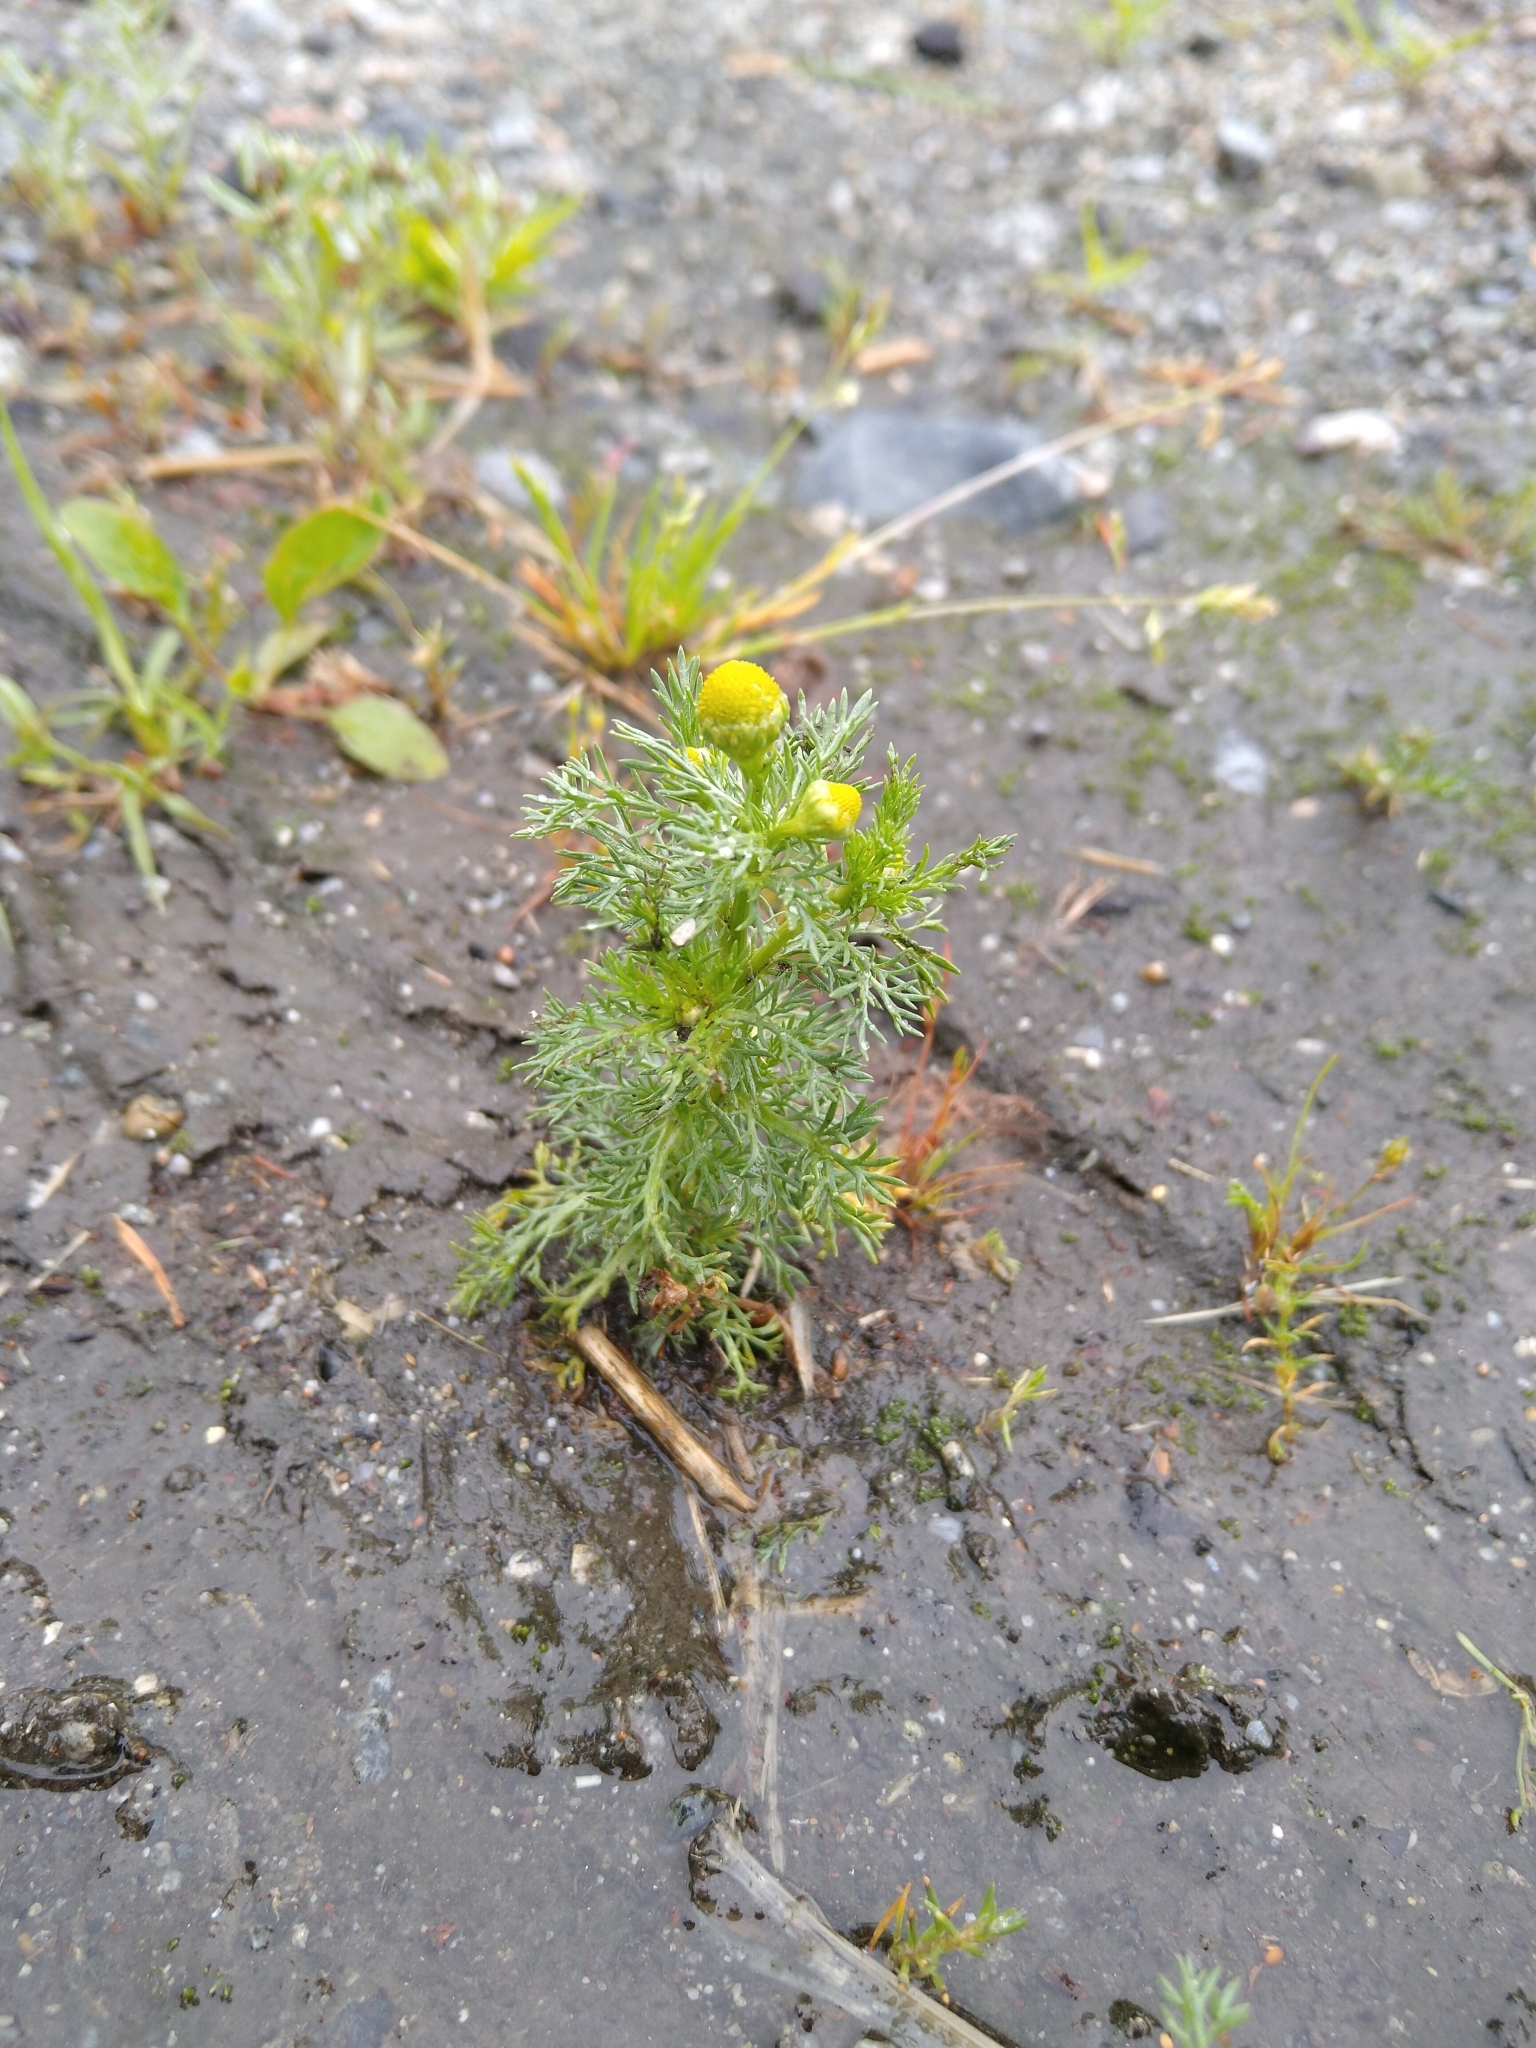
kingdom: Plantae
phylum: Tracheophyta
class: Magnoliopsida
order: Asterales
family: Asteraceae
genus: Matricaria
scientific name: Matricaria discoidea
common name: Disc mayweed
